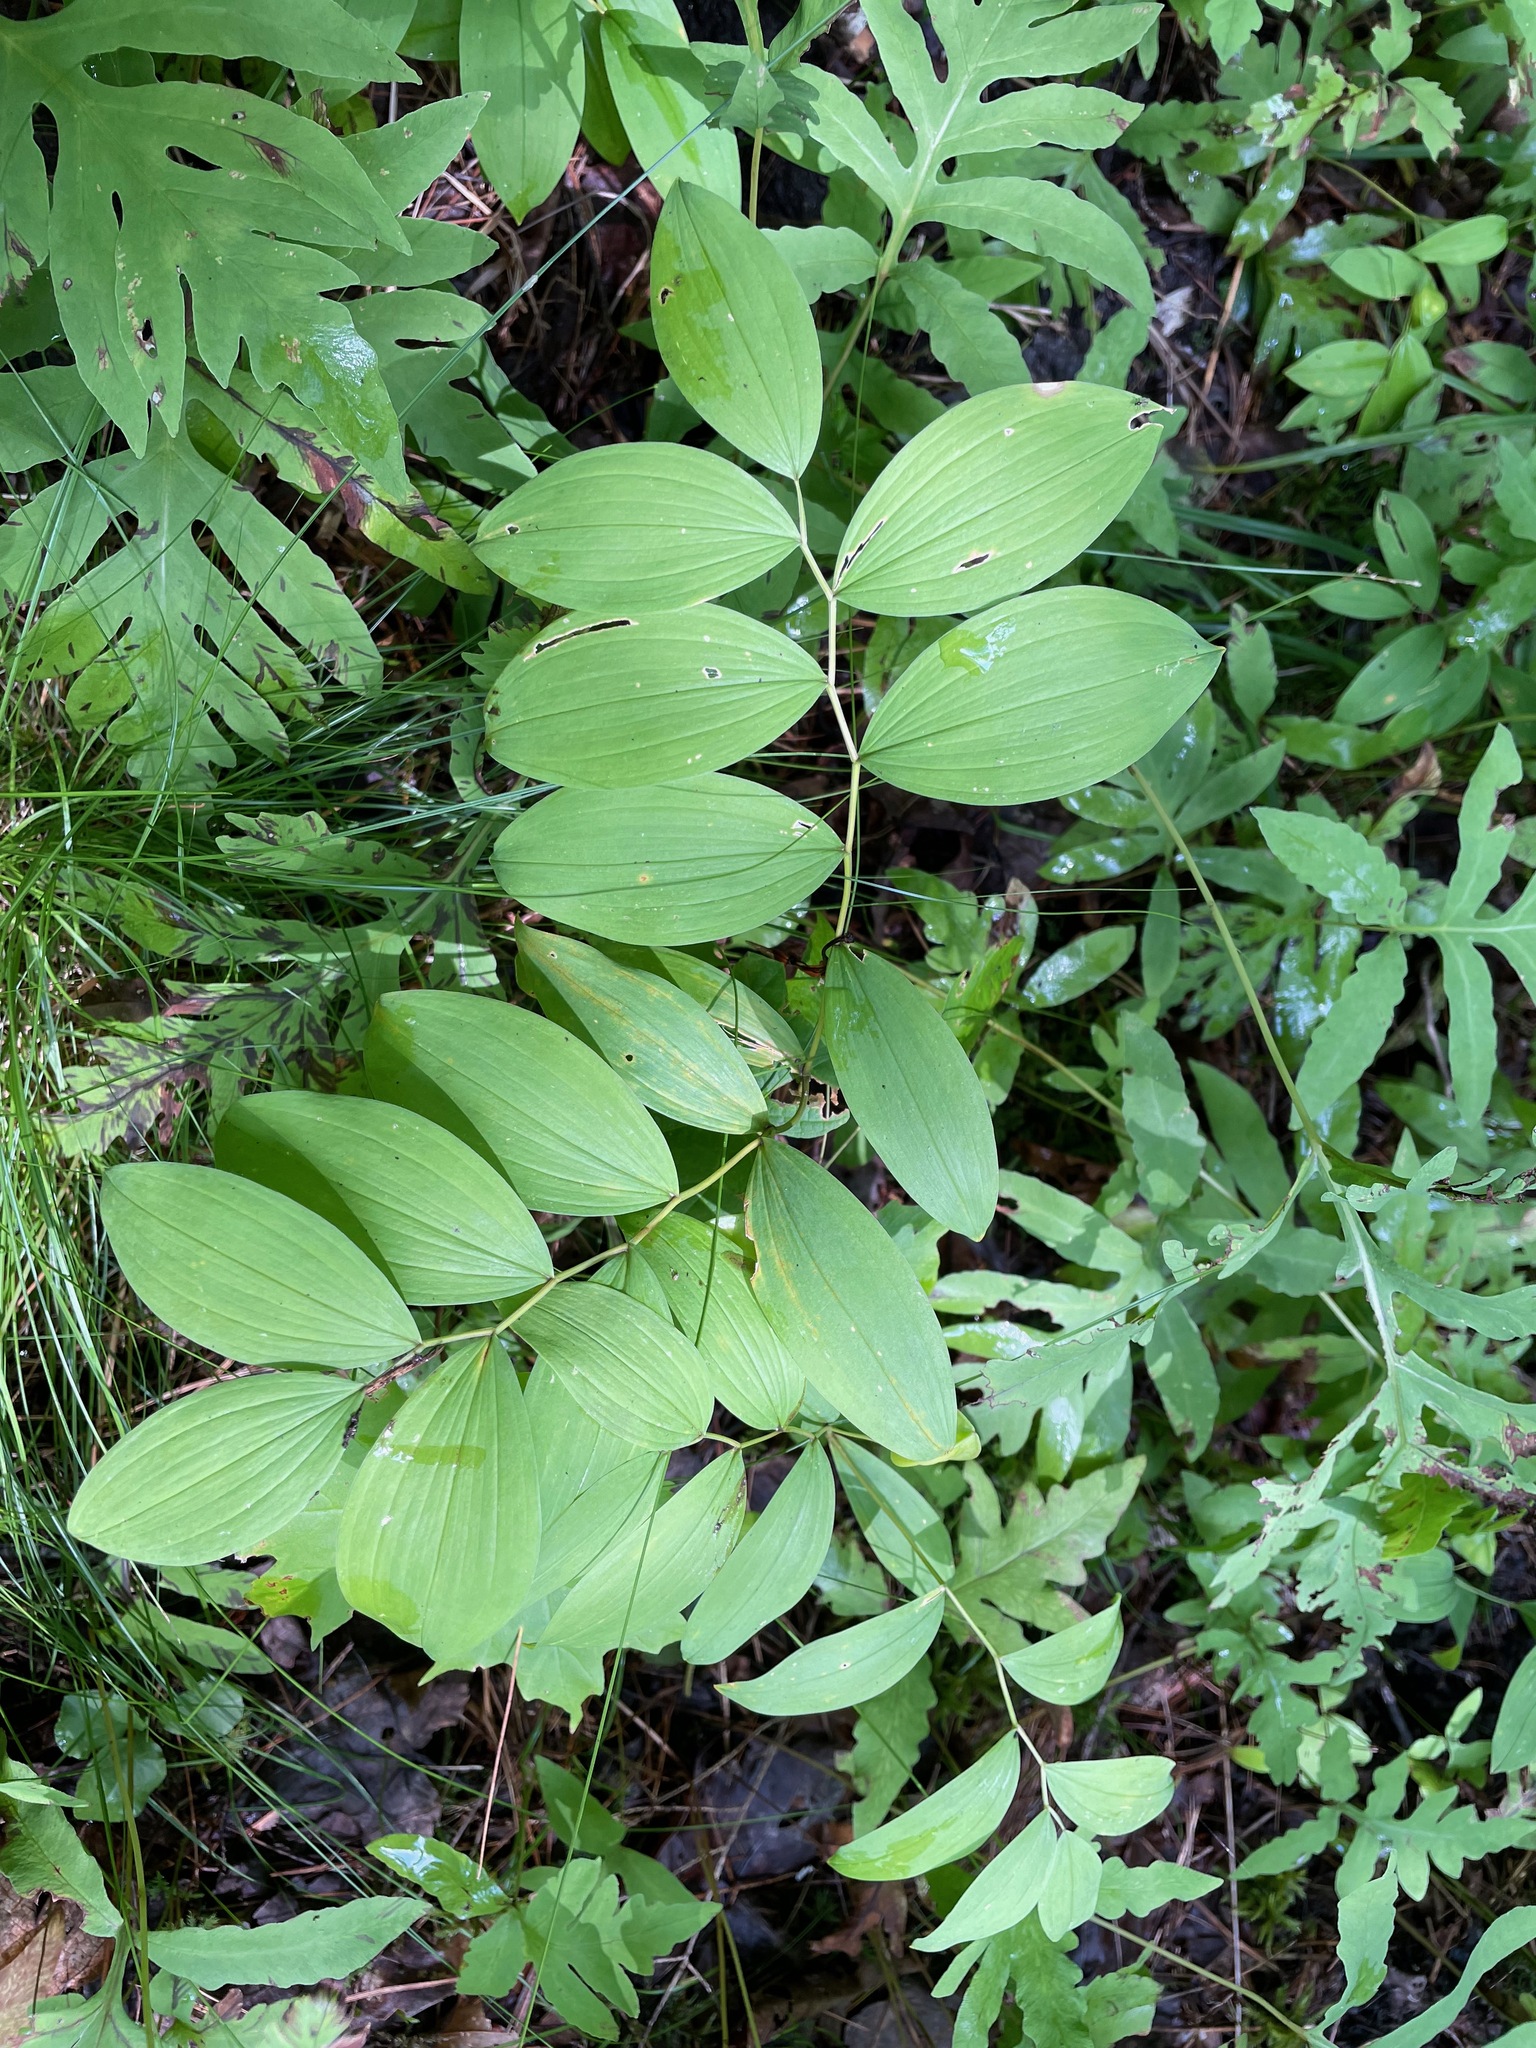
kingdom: Plantae
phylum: Tracheophyta
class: Liliopsida
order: Liliales
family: Colchicaceae
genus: Uvularia
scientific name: Uvularia sessilifolia
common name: Straw-lily
